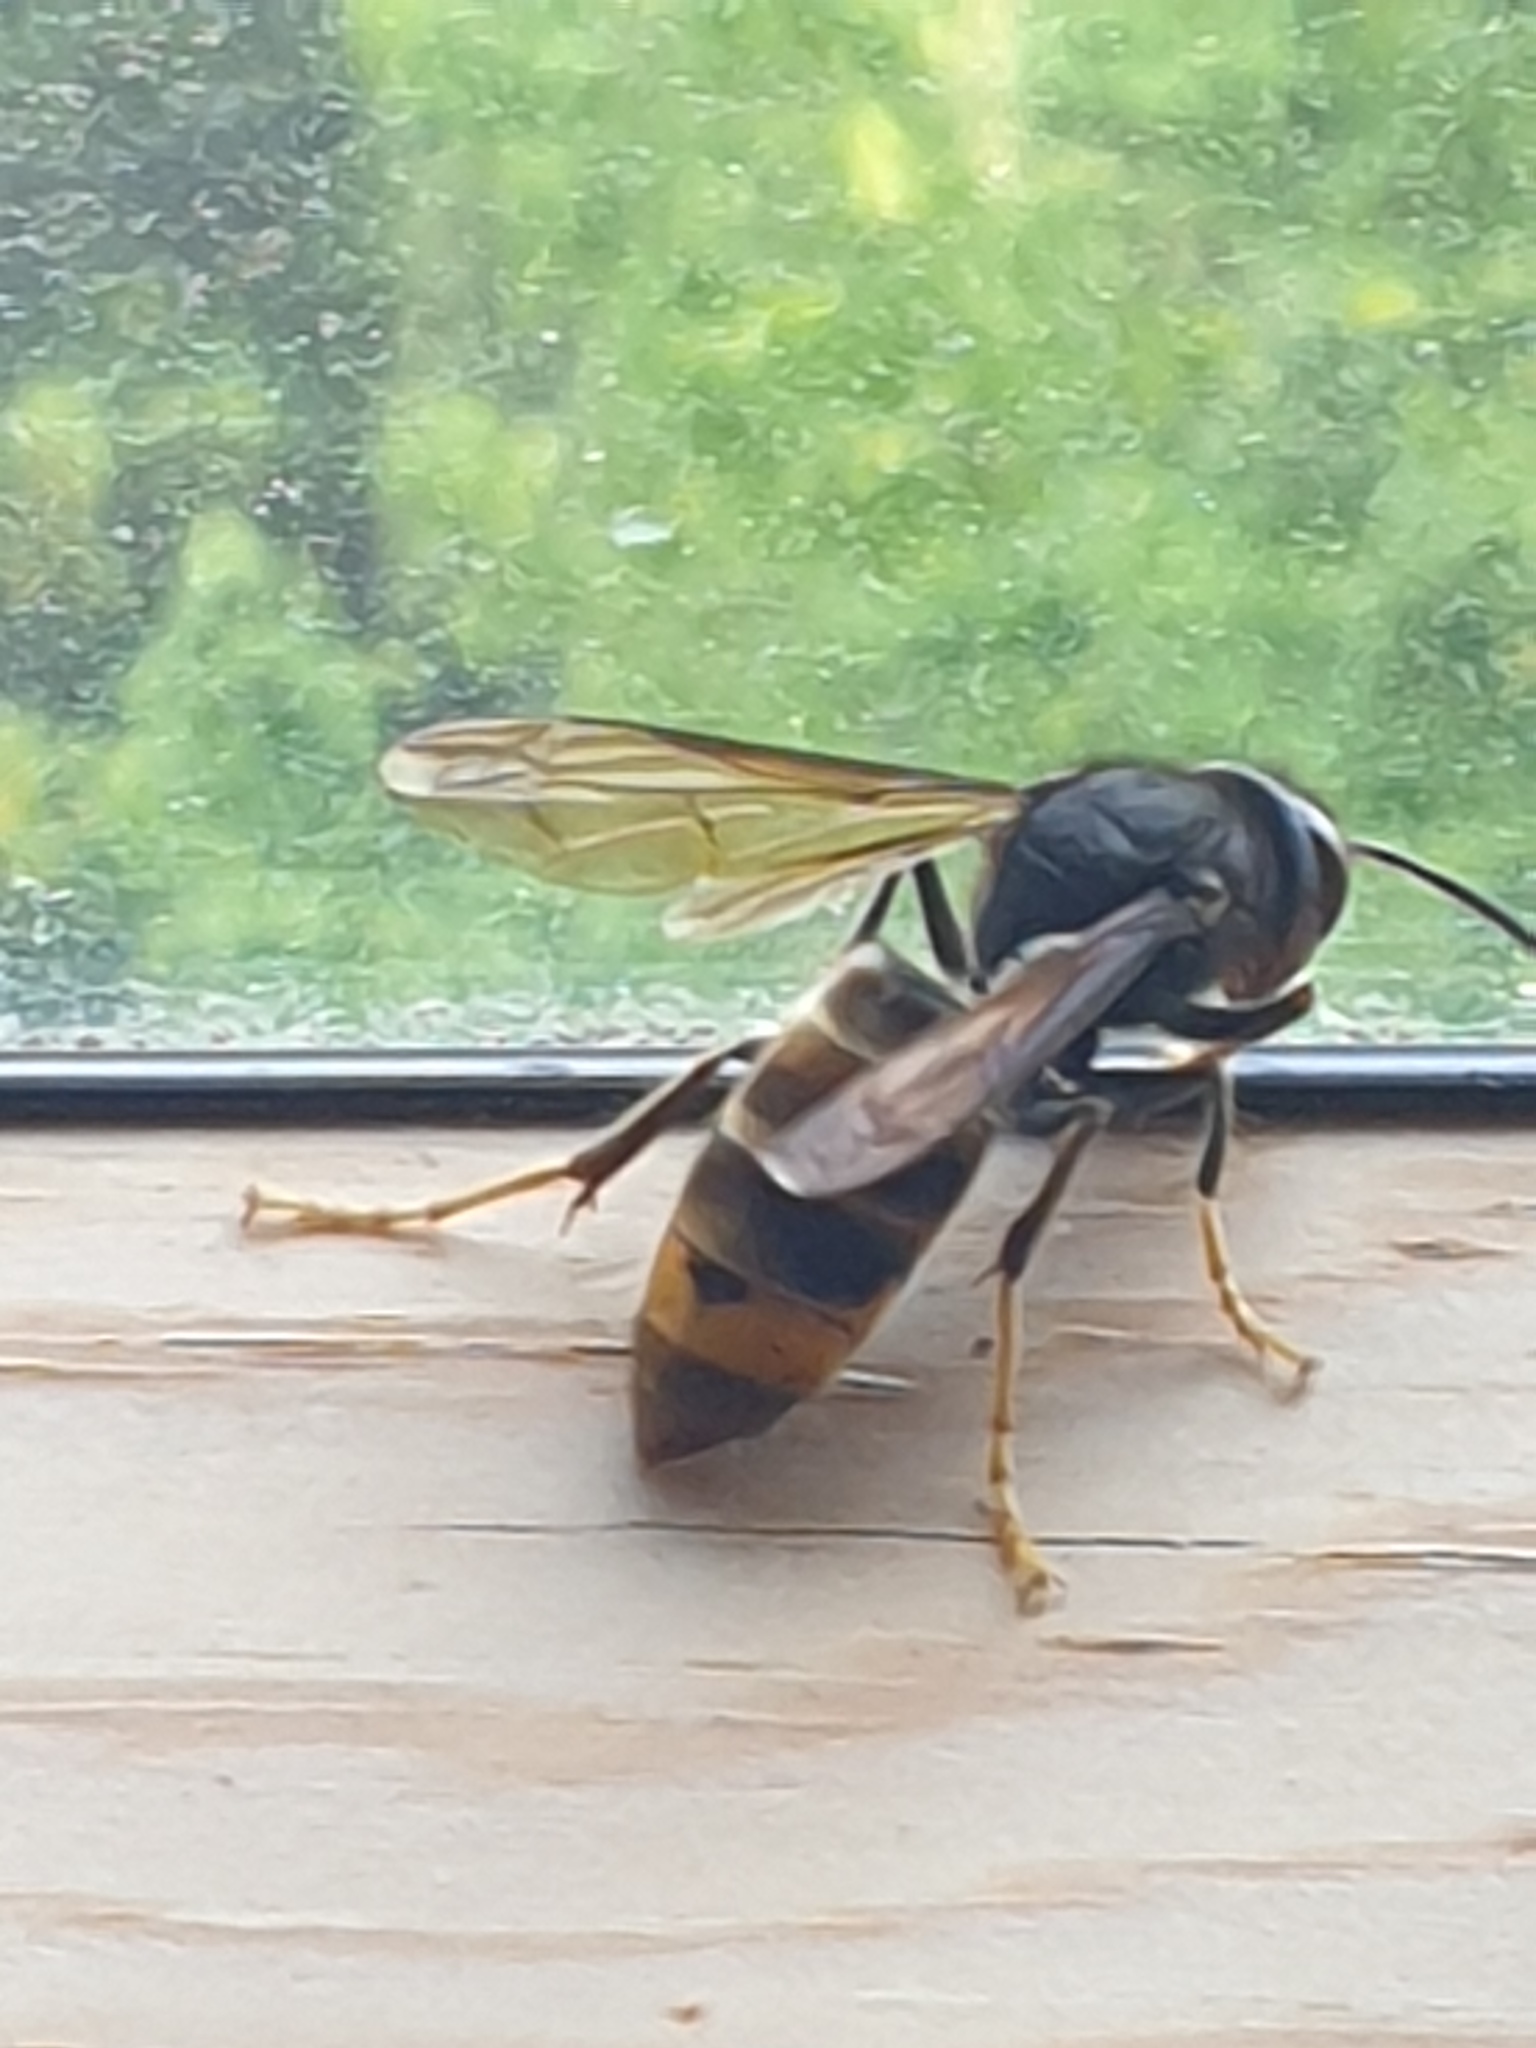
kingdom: Animalia
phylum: Arthropoda
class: Insecta
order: Hymenoptera
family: Vespidae
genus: Vespa
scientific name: Vespa velutina
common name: Asian hornet
